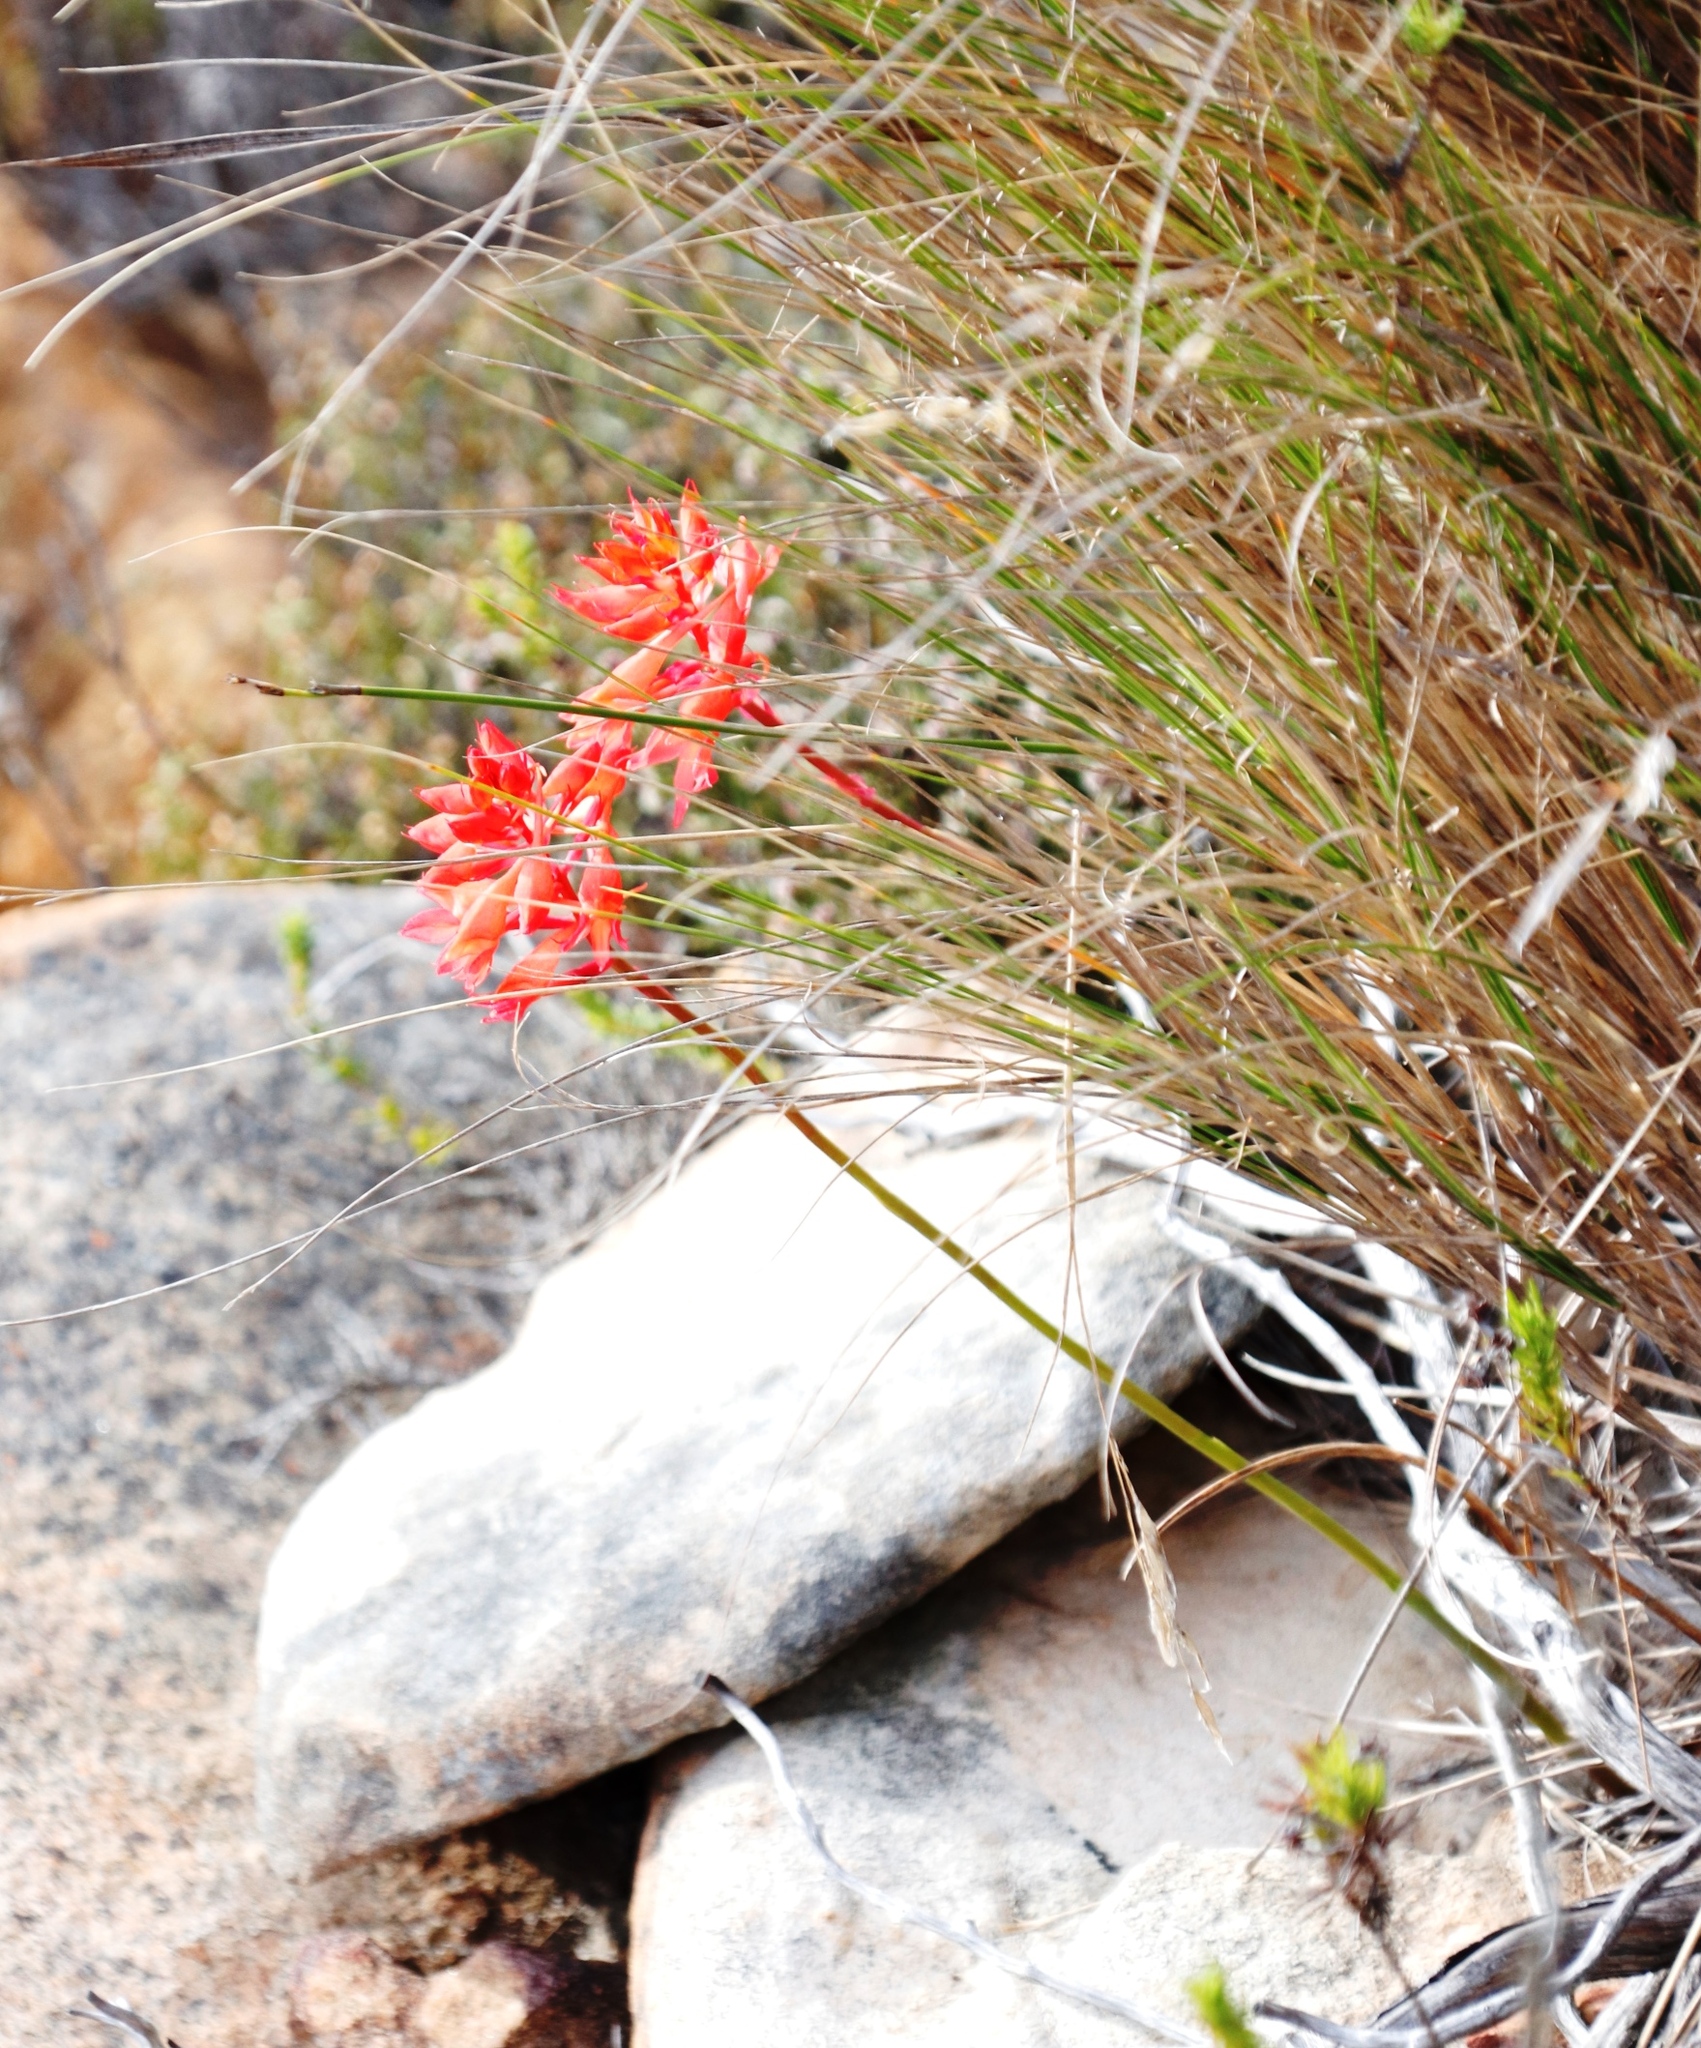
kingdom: Plantae
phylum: Tracheophyta
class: Liliopsida
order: Asparagales
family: Orchidaceae
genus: Disa
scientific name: Disa ferruginea
